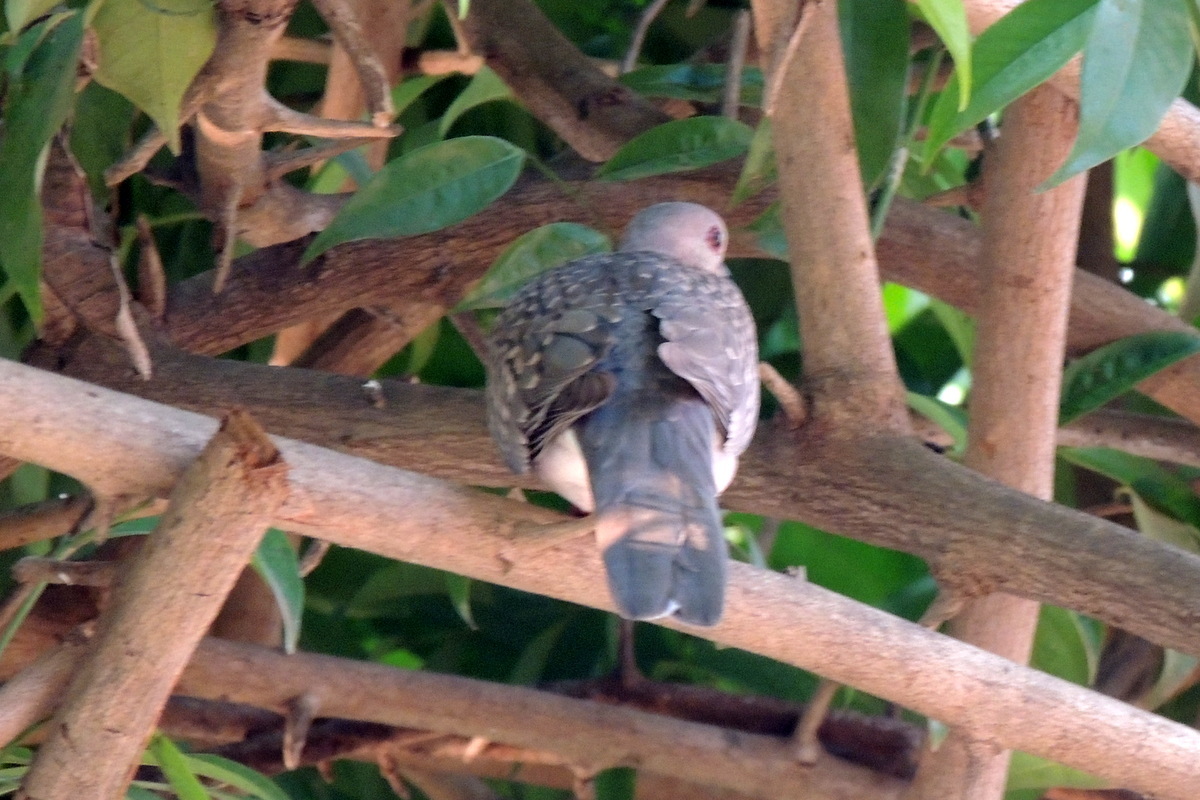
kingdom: Animalia
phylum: Chordata
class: Aves
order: Columbiformes
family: Columbidae
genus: Spilopelia
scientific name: Spilopelia chinensis
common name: Spotted dove
